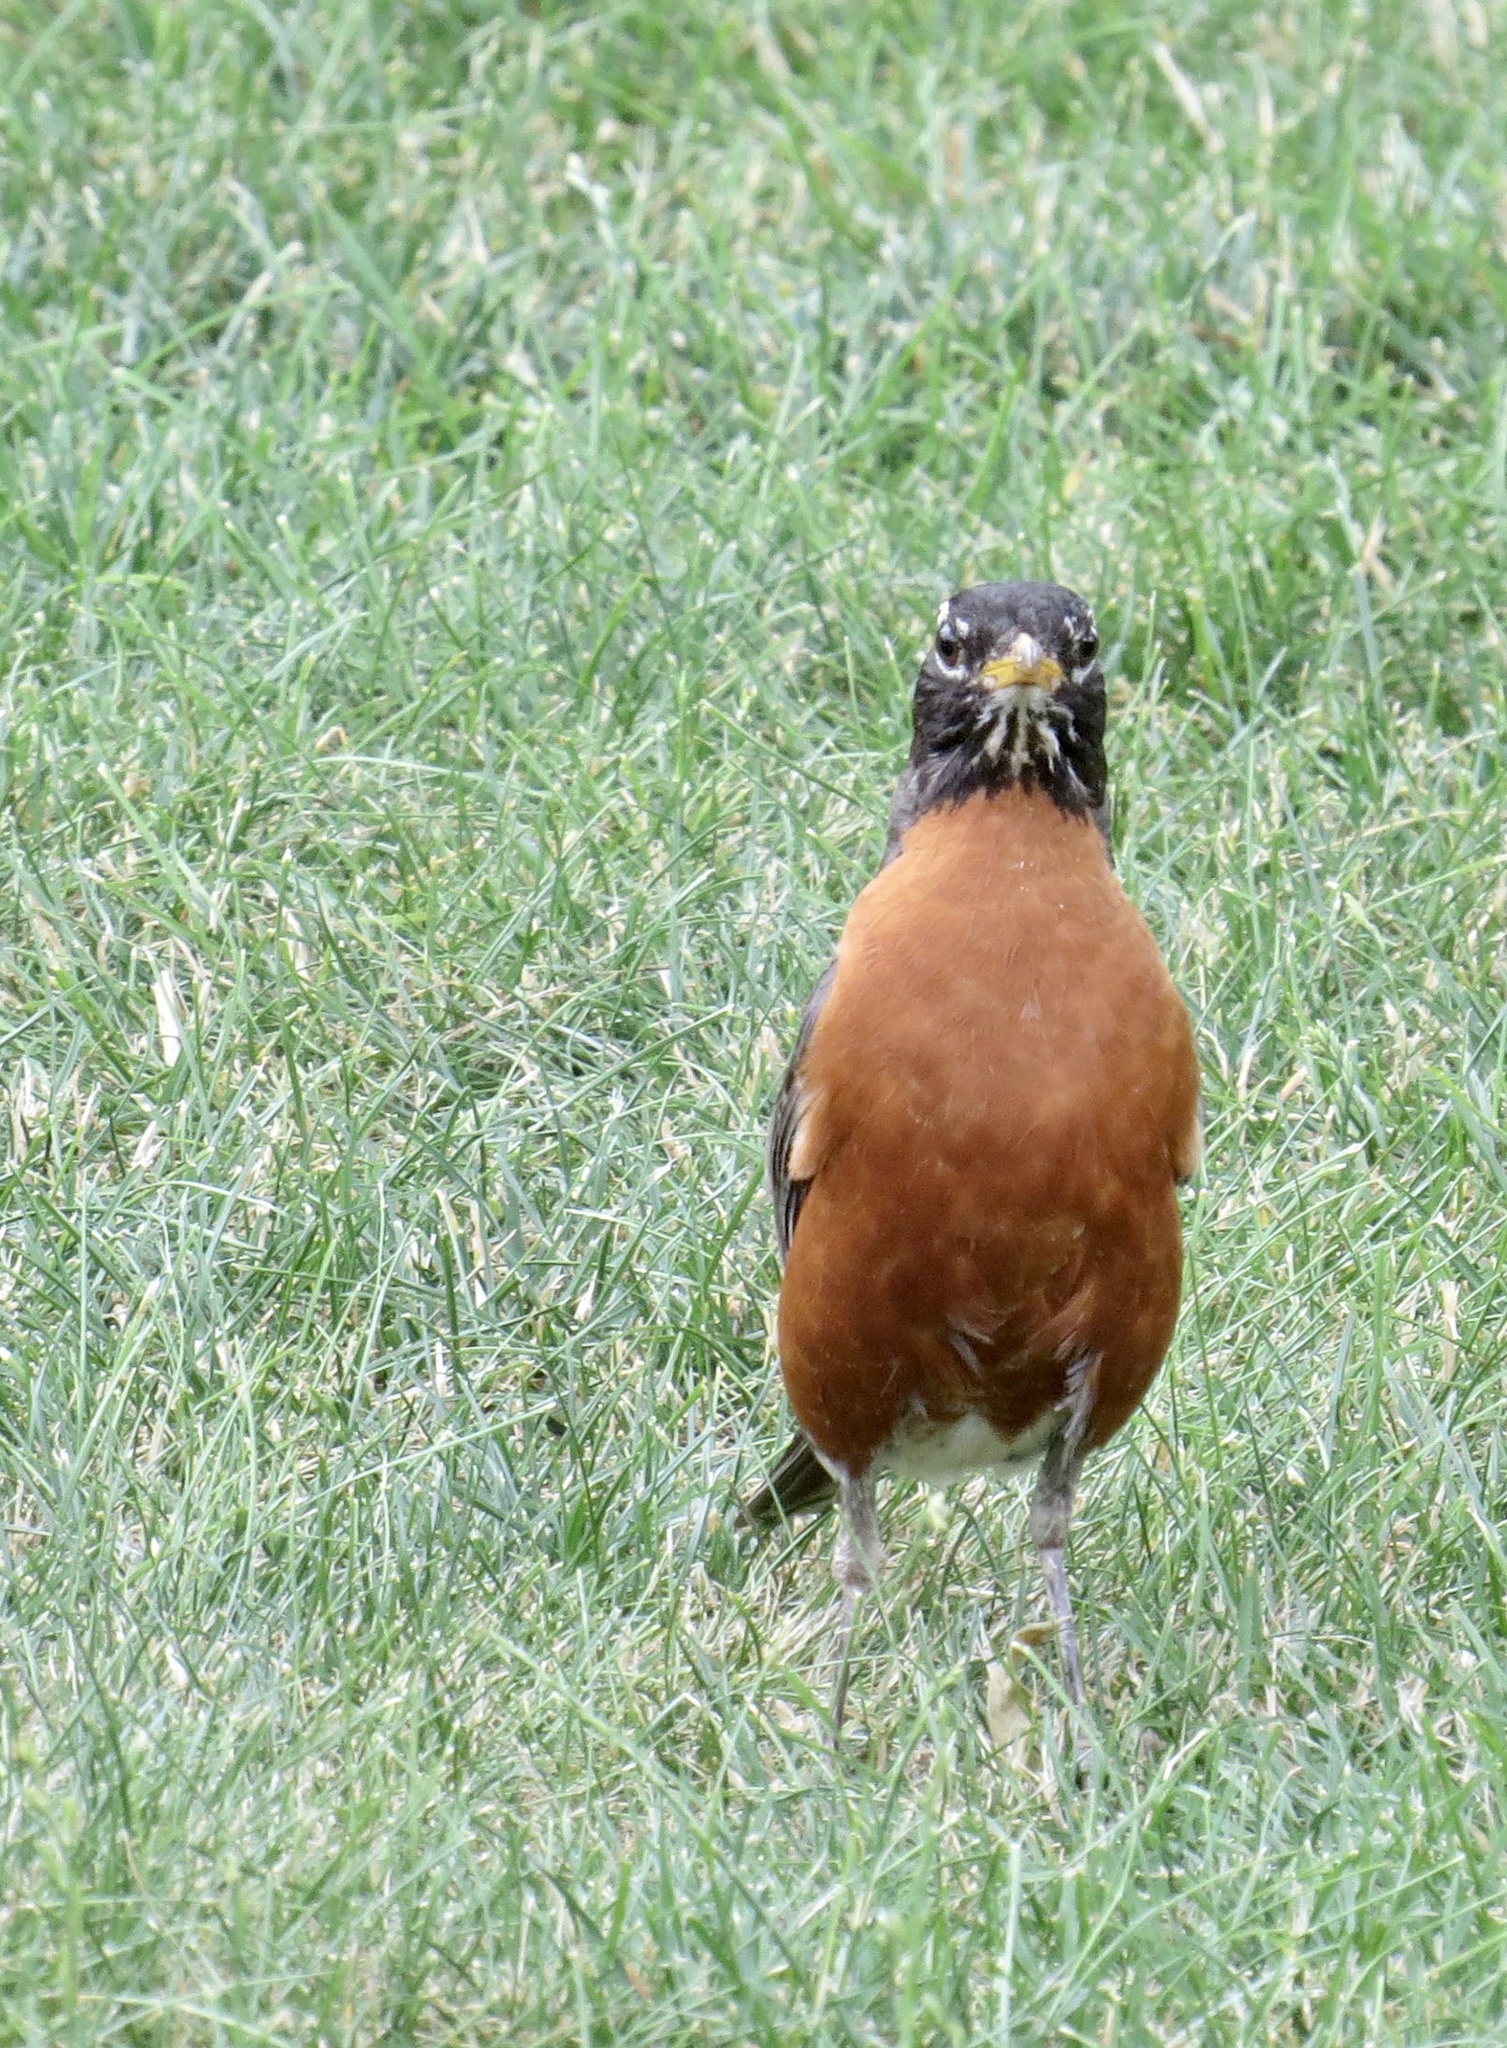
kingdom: Animalia
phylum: Chordata
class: Aves
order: Passeriformes
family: Turdidae
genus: Turdus
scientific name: Turdus migratorius
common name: American robin
